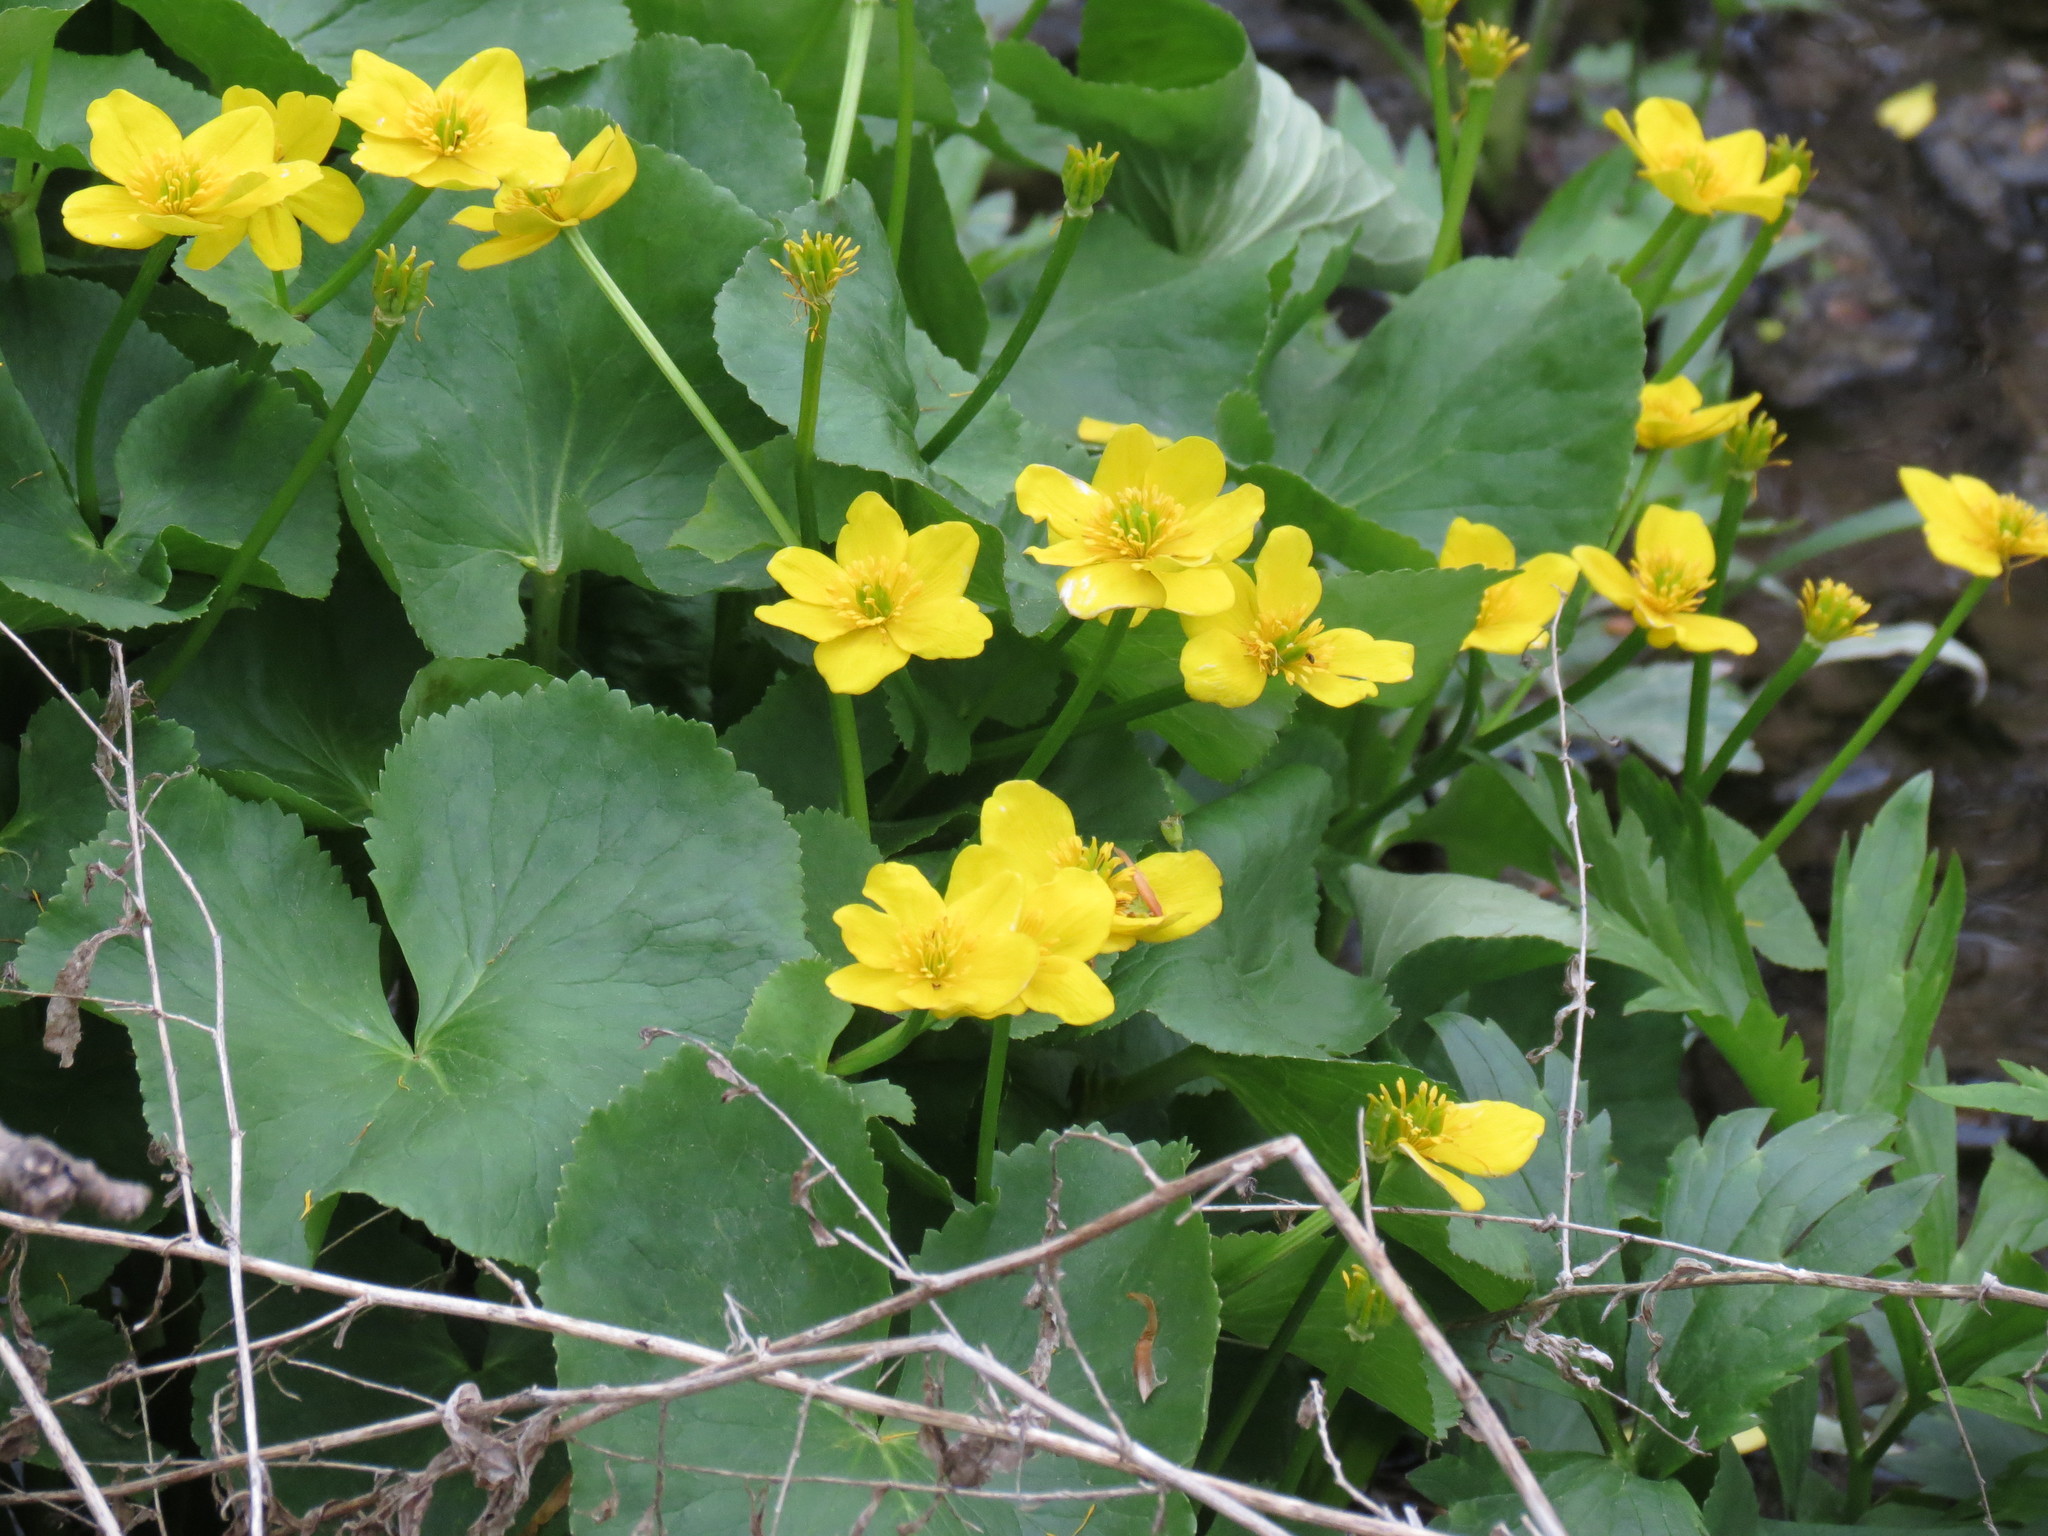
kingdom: Plantae
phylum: Tracheophyta
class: Magnoliopsida
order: Ranunculales
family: Ranunculaceae
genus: Caltha
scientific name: Caltha palustris
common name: Marsh marigold
